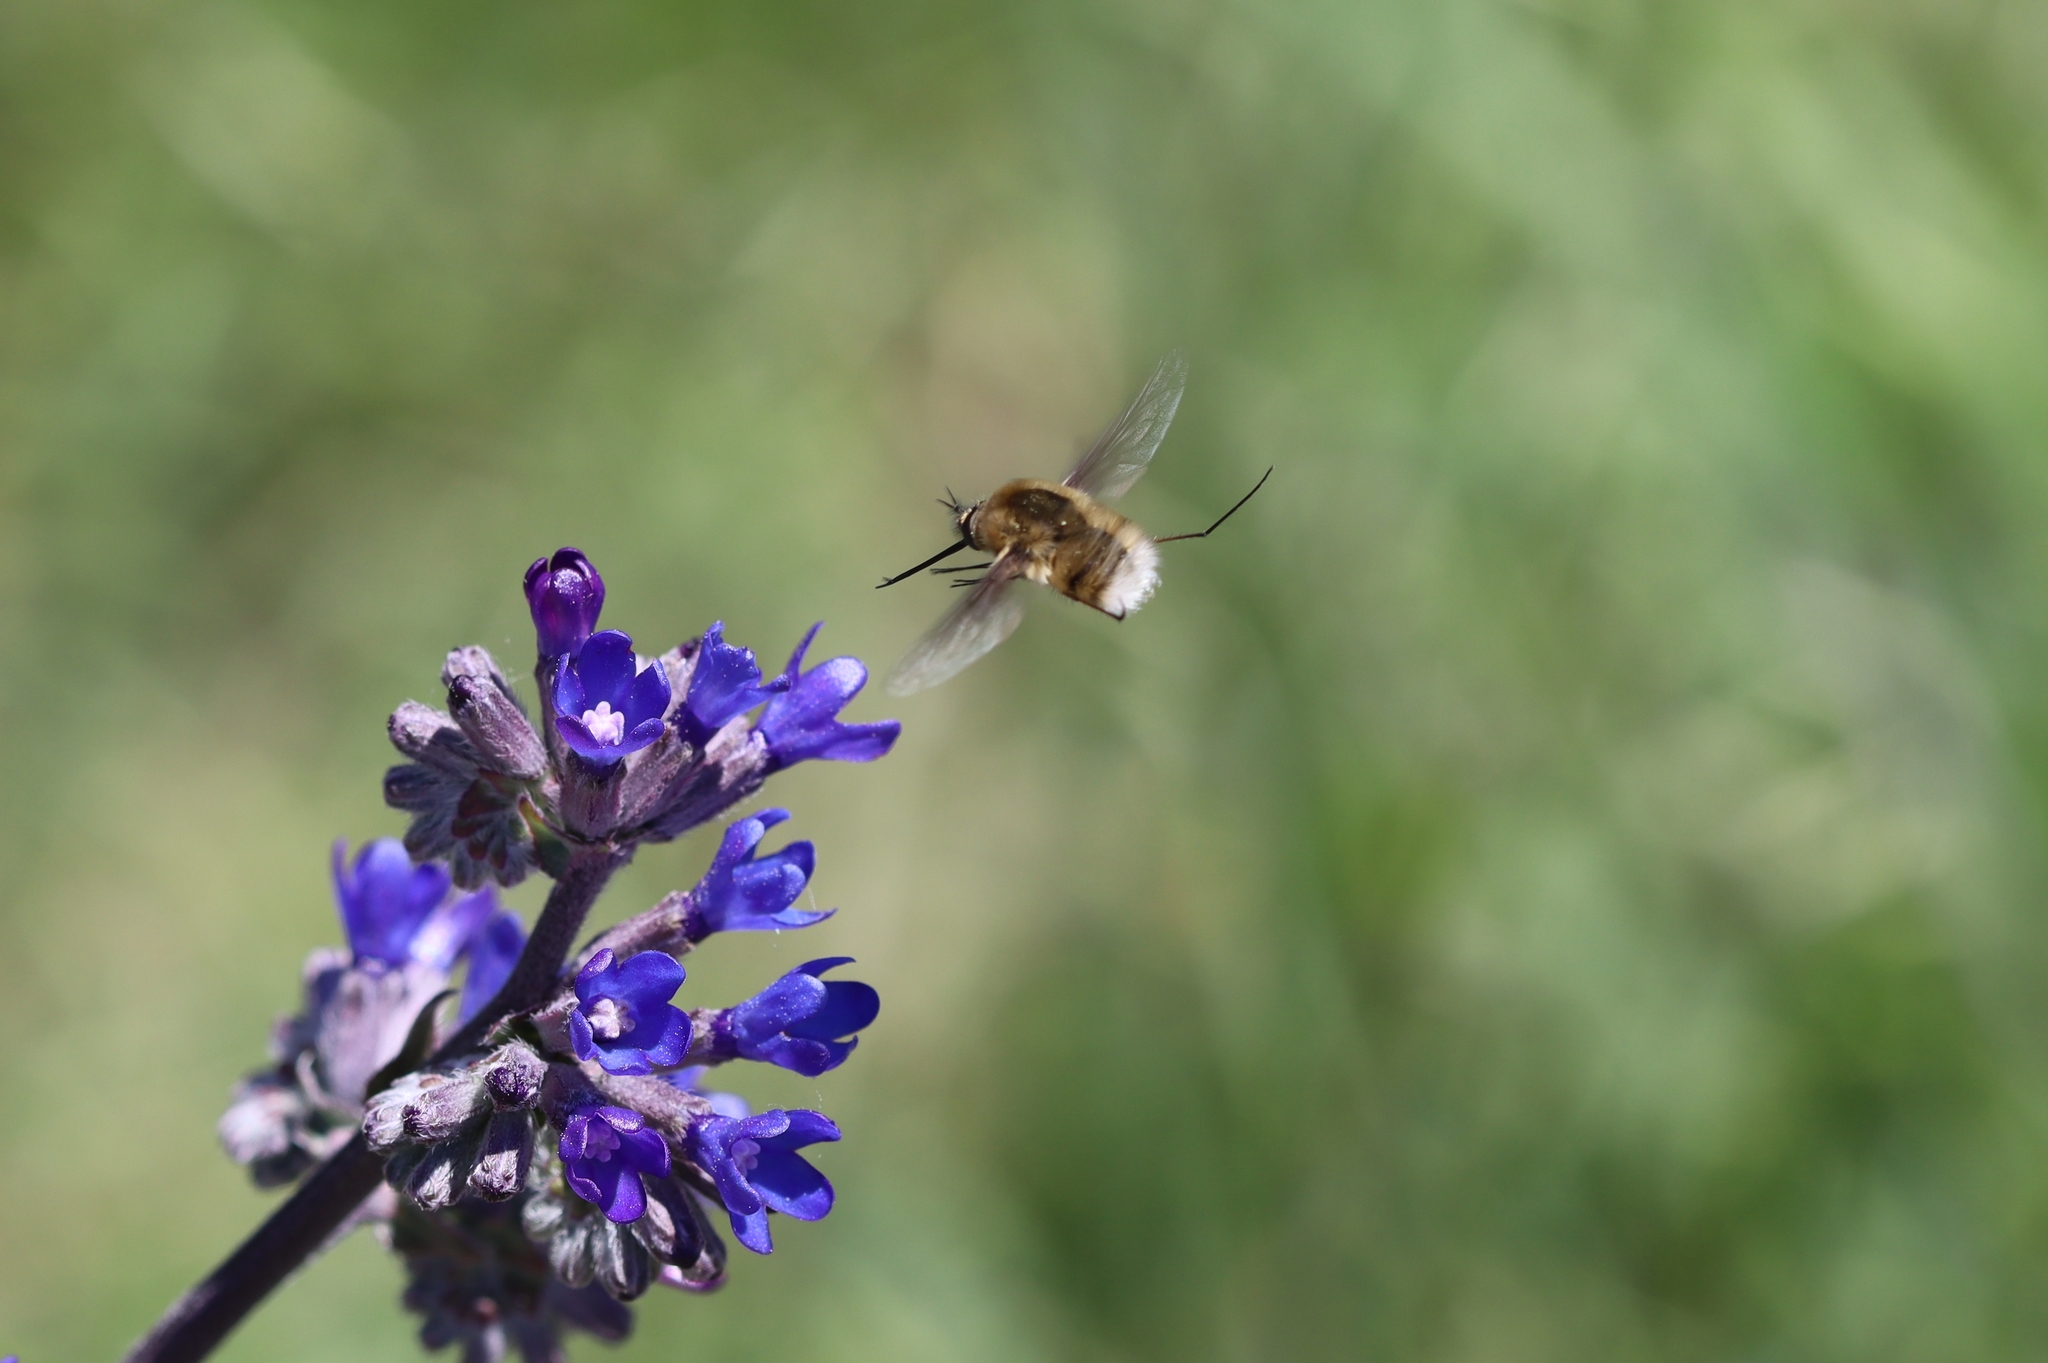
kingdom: Animalia
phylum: Arthropoda
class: Insecta
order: Diptera
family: Bombyliidae
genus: Bombylius
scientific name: Bombylius posticus
